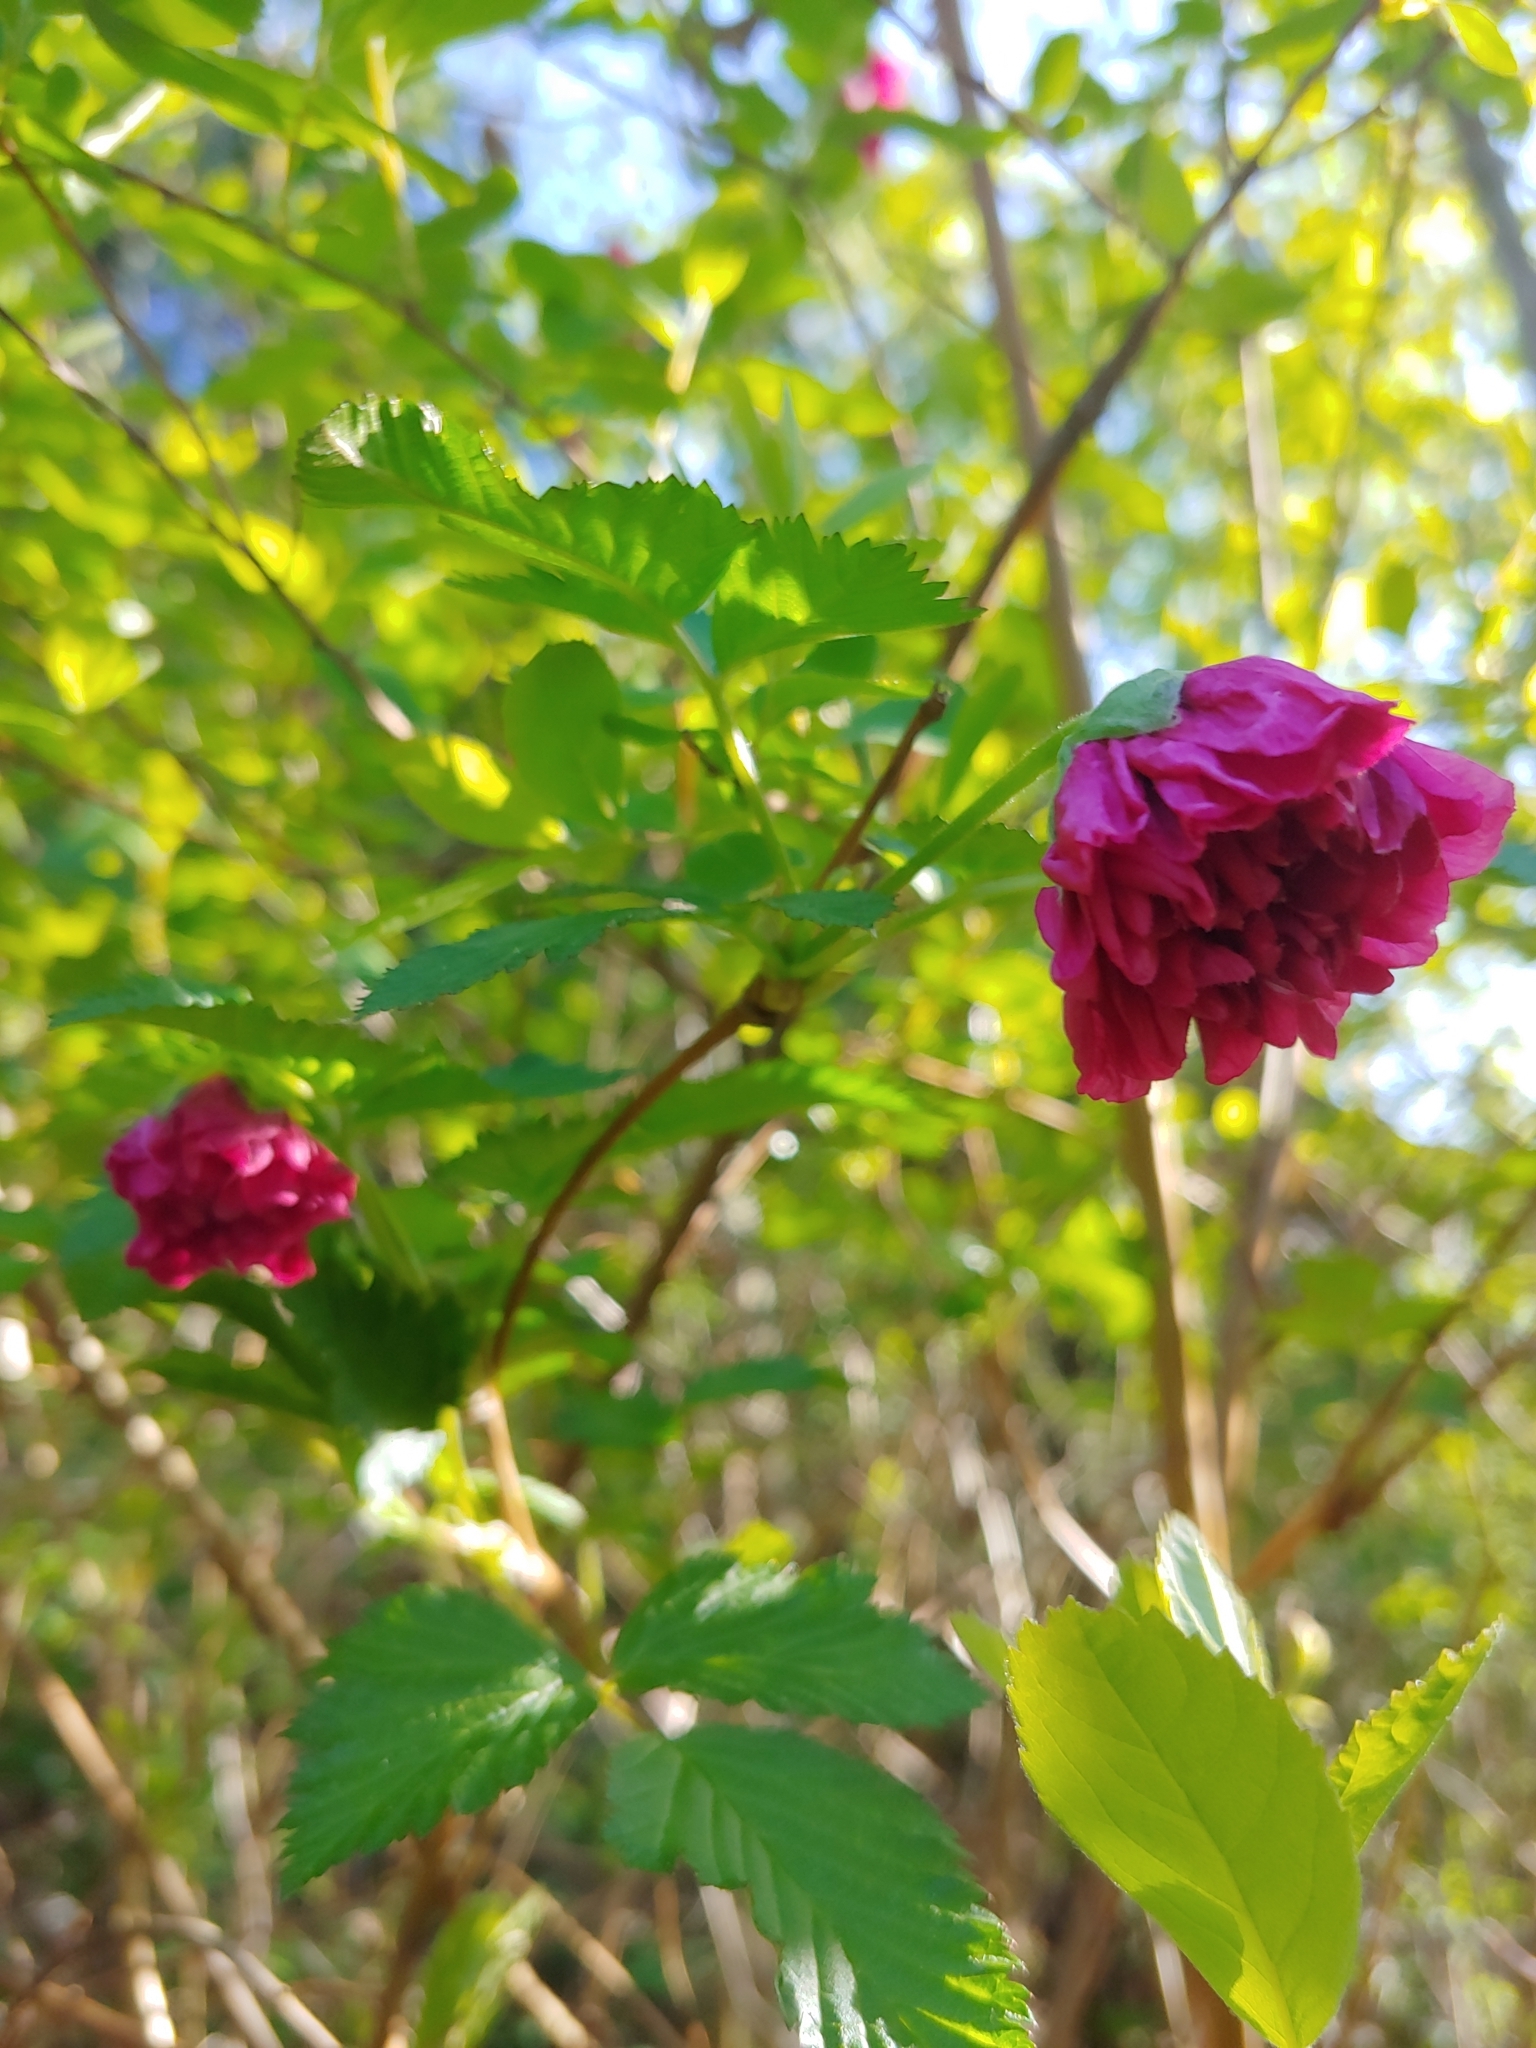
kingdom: Plantae
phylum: Tracheophyta
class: Magnoliopsida
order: Rosales
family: Rosaceae
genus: Rubus
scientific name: Rubus spectabilis
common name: Salmonberry
